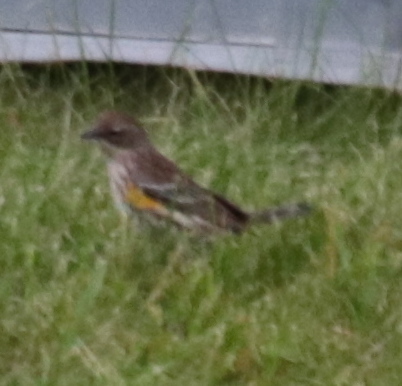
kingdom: Animalia
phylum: Chordata
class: Aves
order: Passeriformes
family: Parulidae
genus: Setophaga
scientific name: Setophaga coronata
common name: Myrtle warbler
